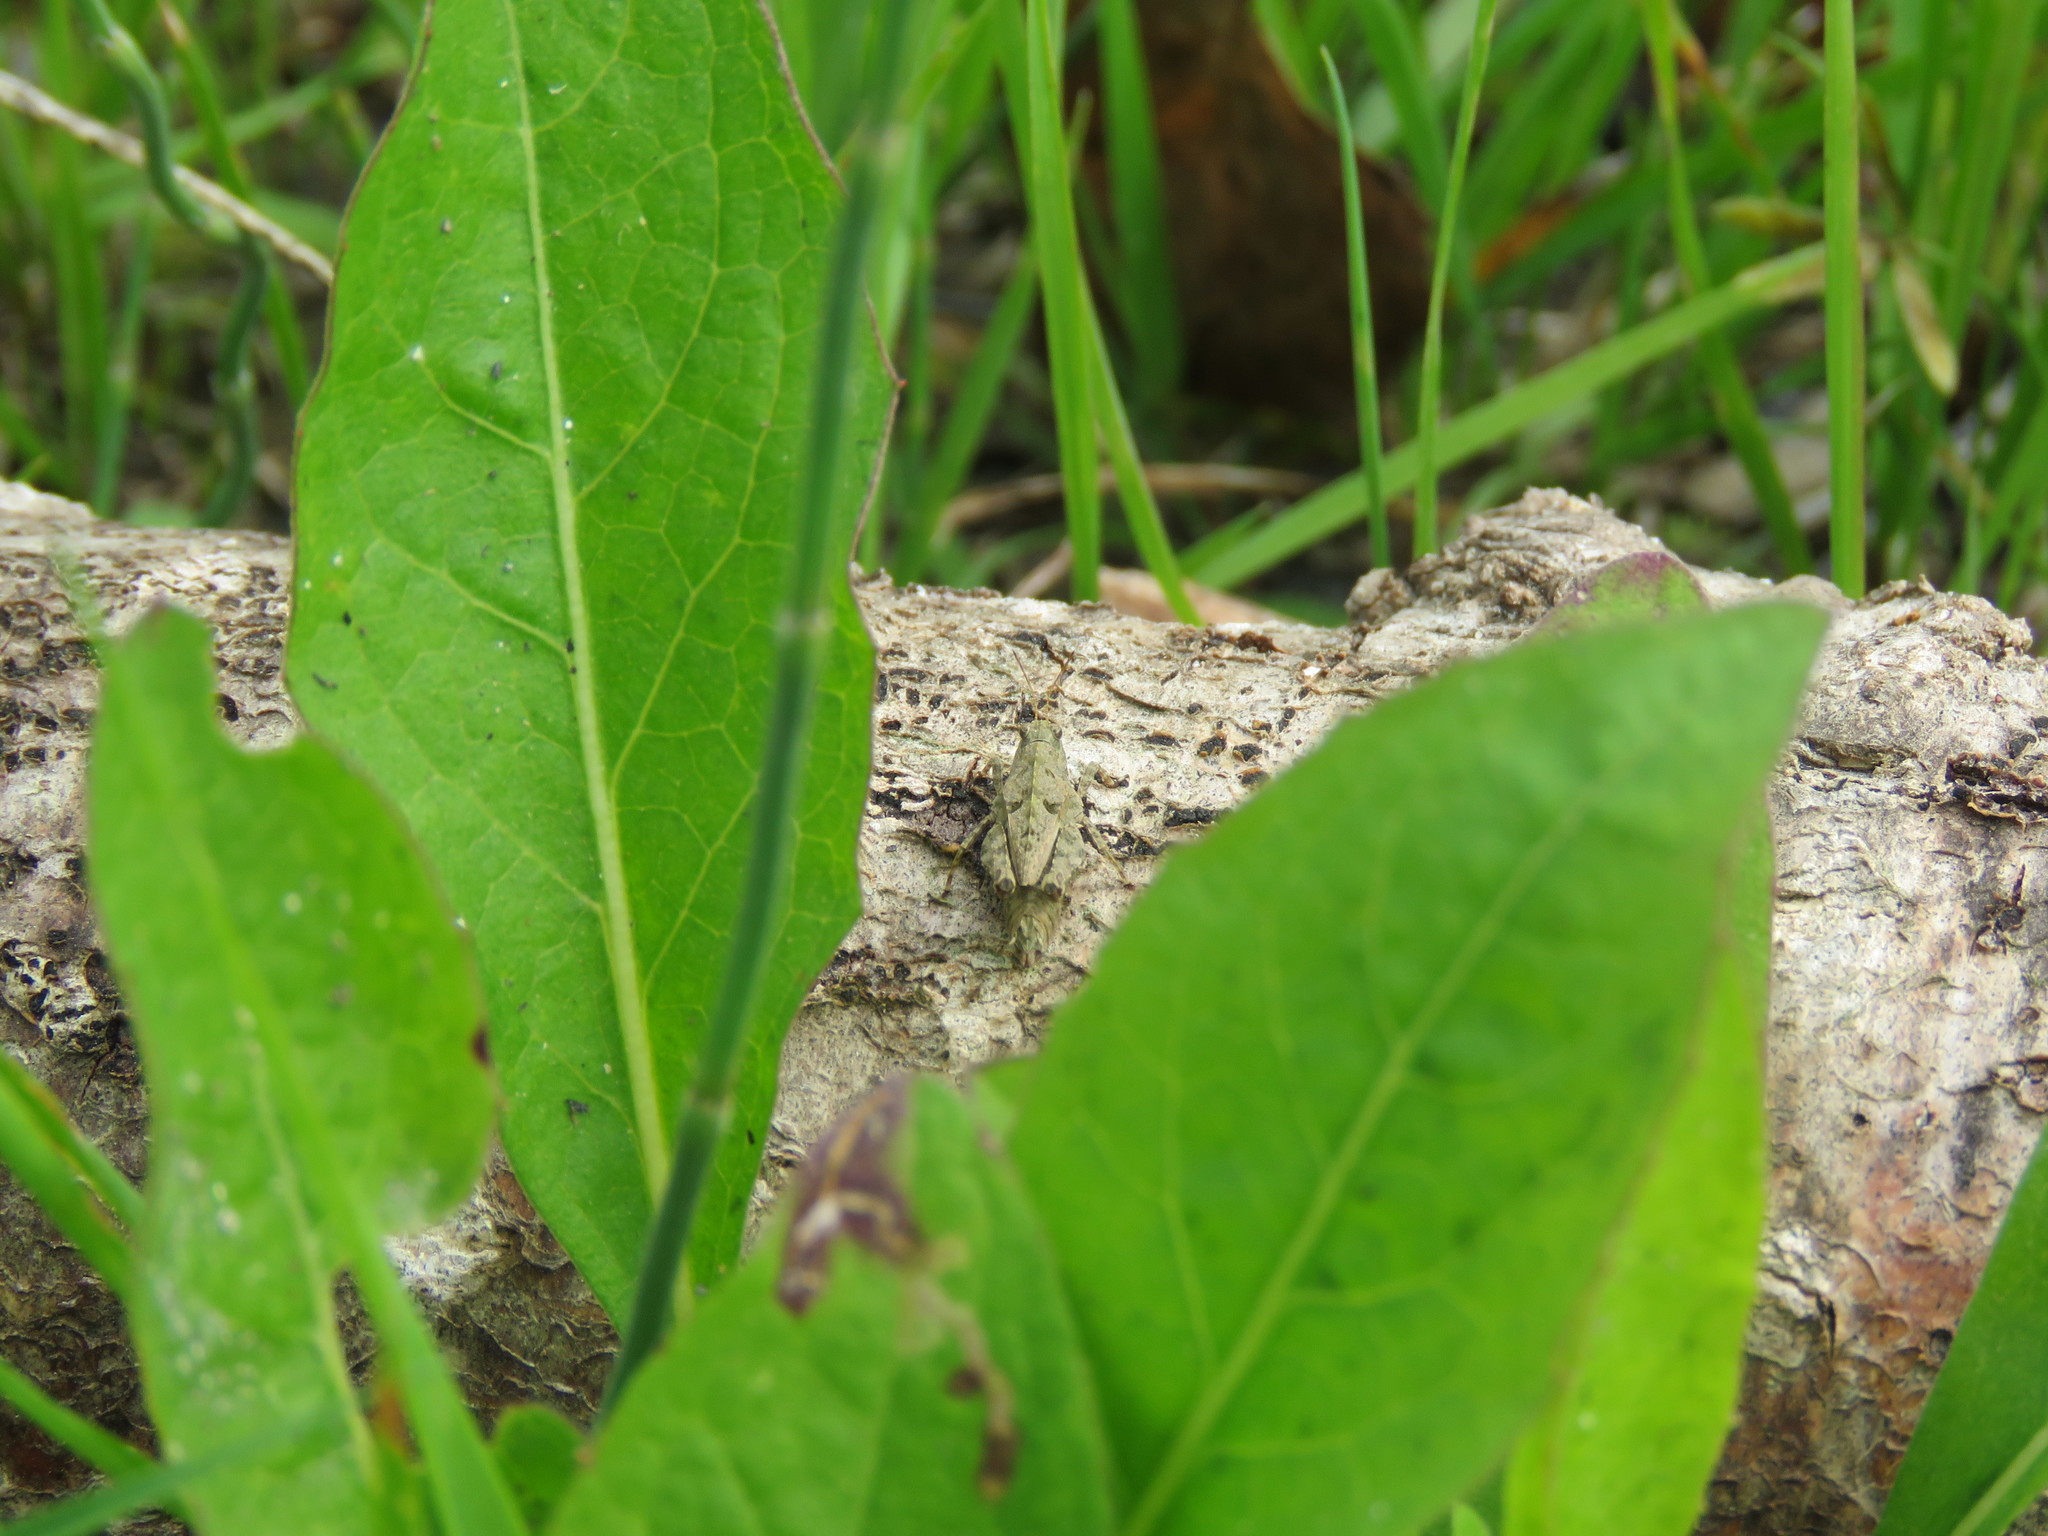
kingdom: Animalia
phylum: Arthropoda
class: Insecta
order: Orthoptera
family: Tetrigidae
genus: Tetrix
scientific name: Tetrix tenuicornis
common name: Long-horned groundhopper
